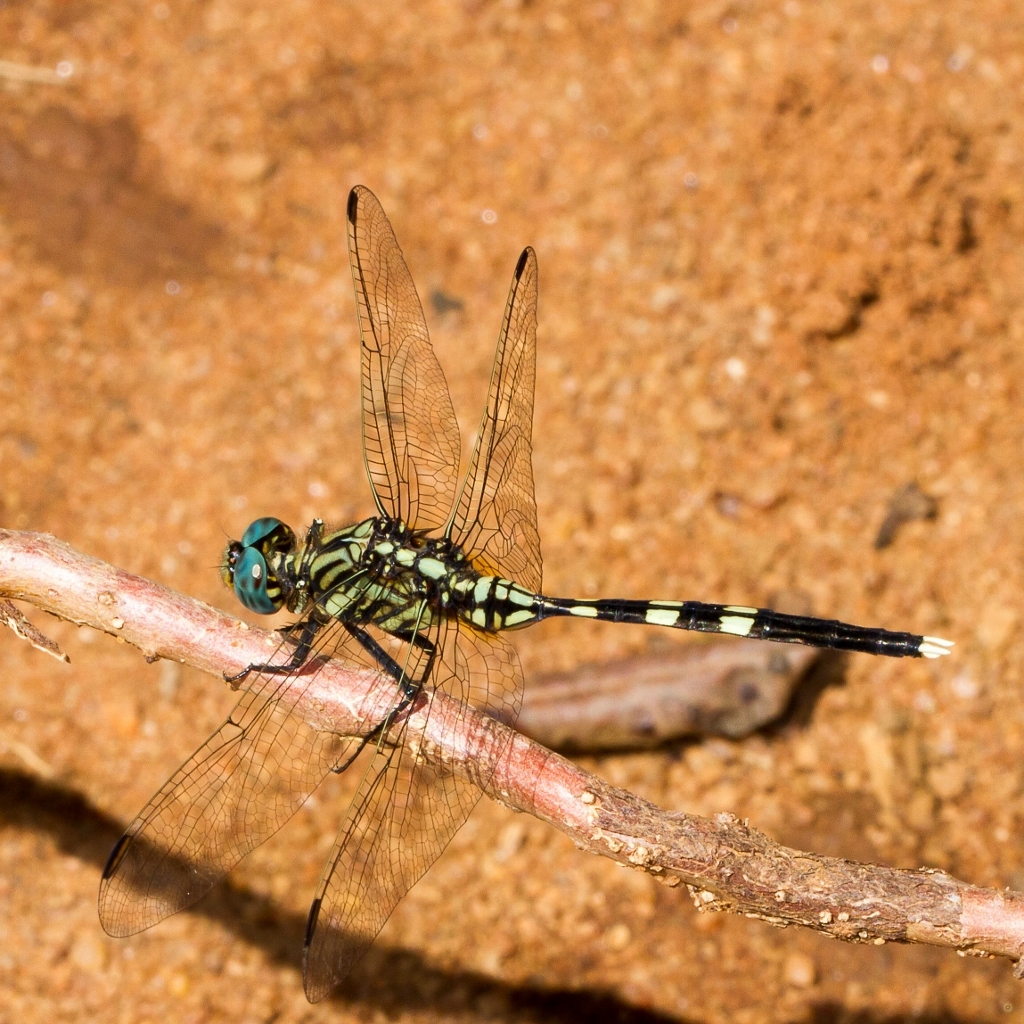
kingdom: Animalia
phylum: Arthropoda
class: Insecta
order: Odonata
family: Libellulidae
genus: Orthetrum
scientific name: Orthetrum stemmale
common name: Bold skimmer
